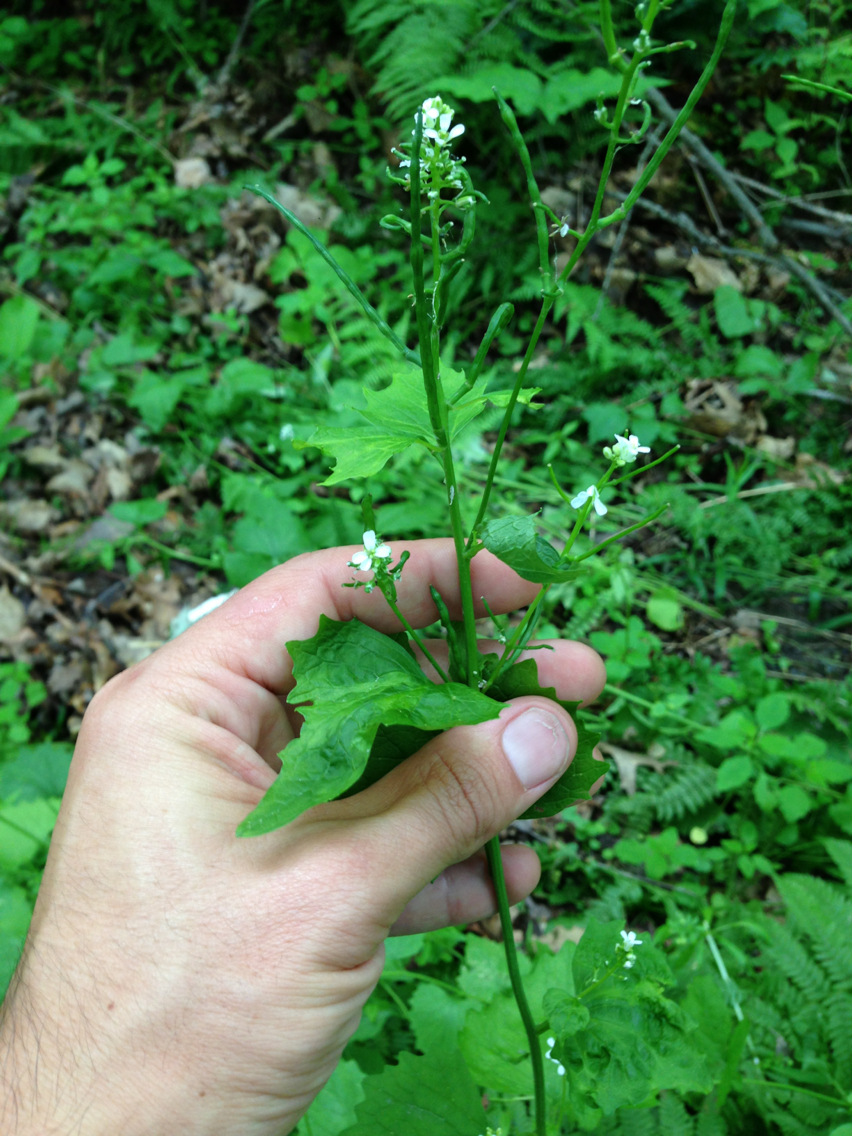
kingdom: Plantae
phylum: Tracheophyta
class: Magnoliopsida
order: Brassicales
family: Brassicaceae
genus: Alliaria
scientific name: Alliaria petiolata
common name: Garlic mustard
